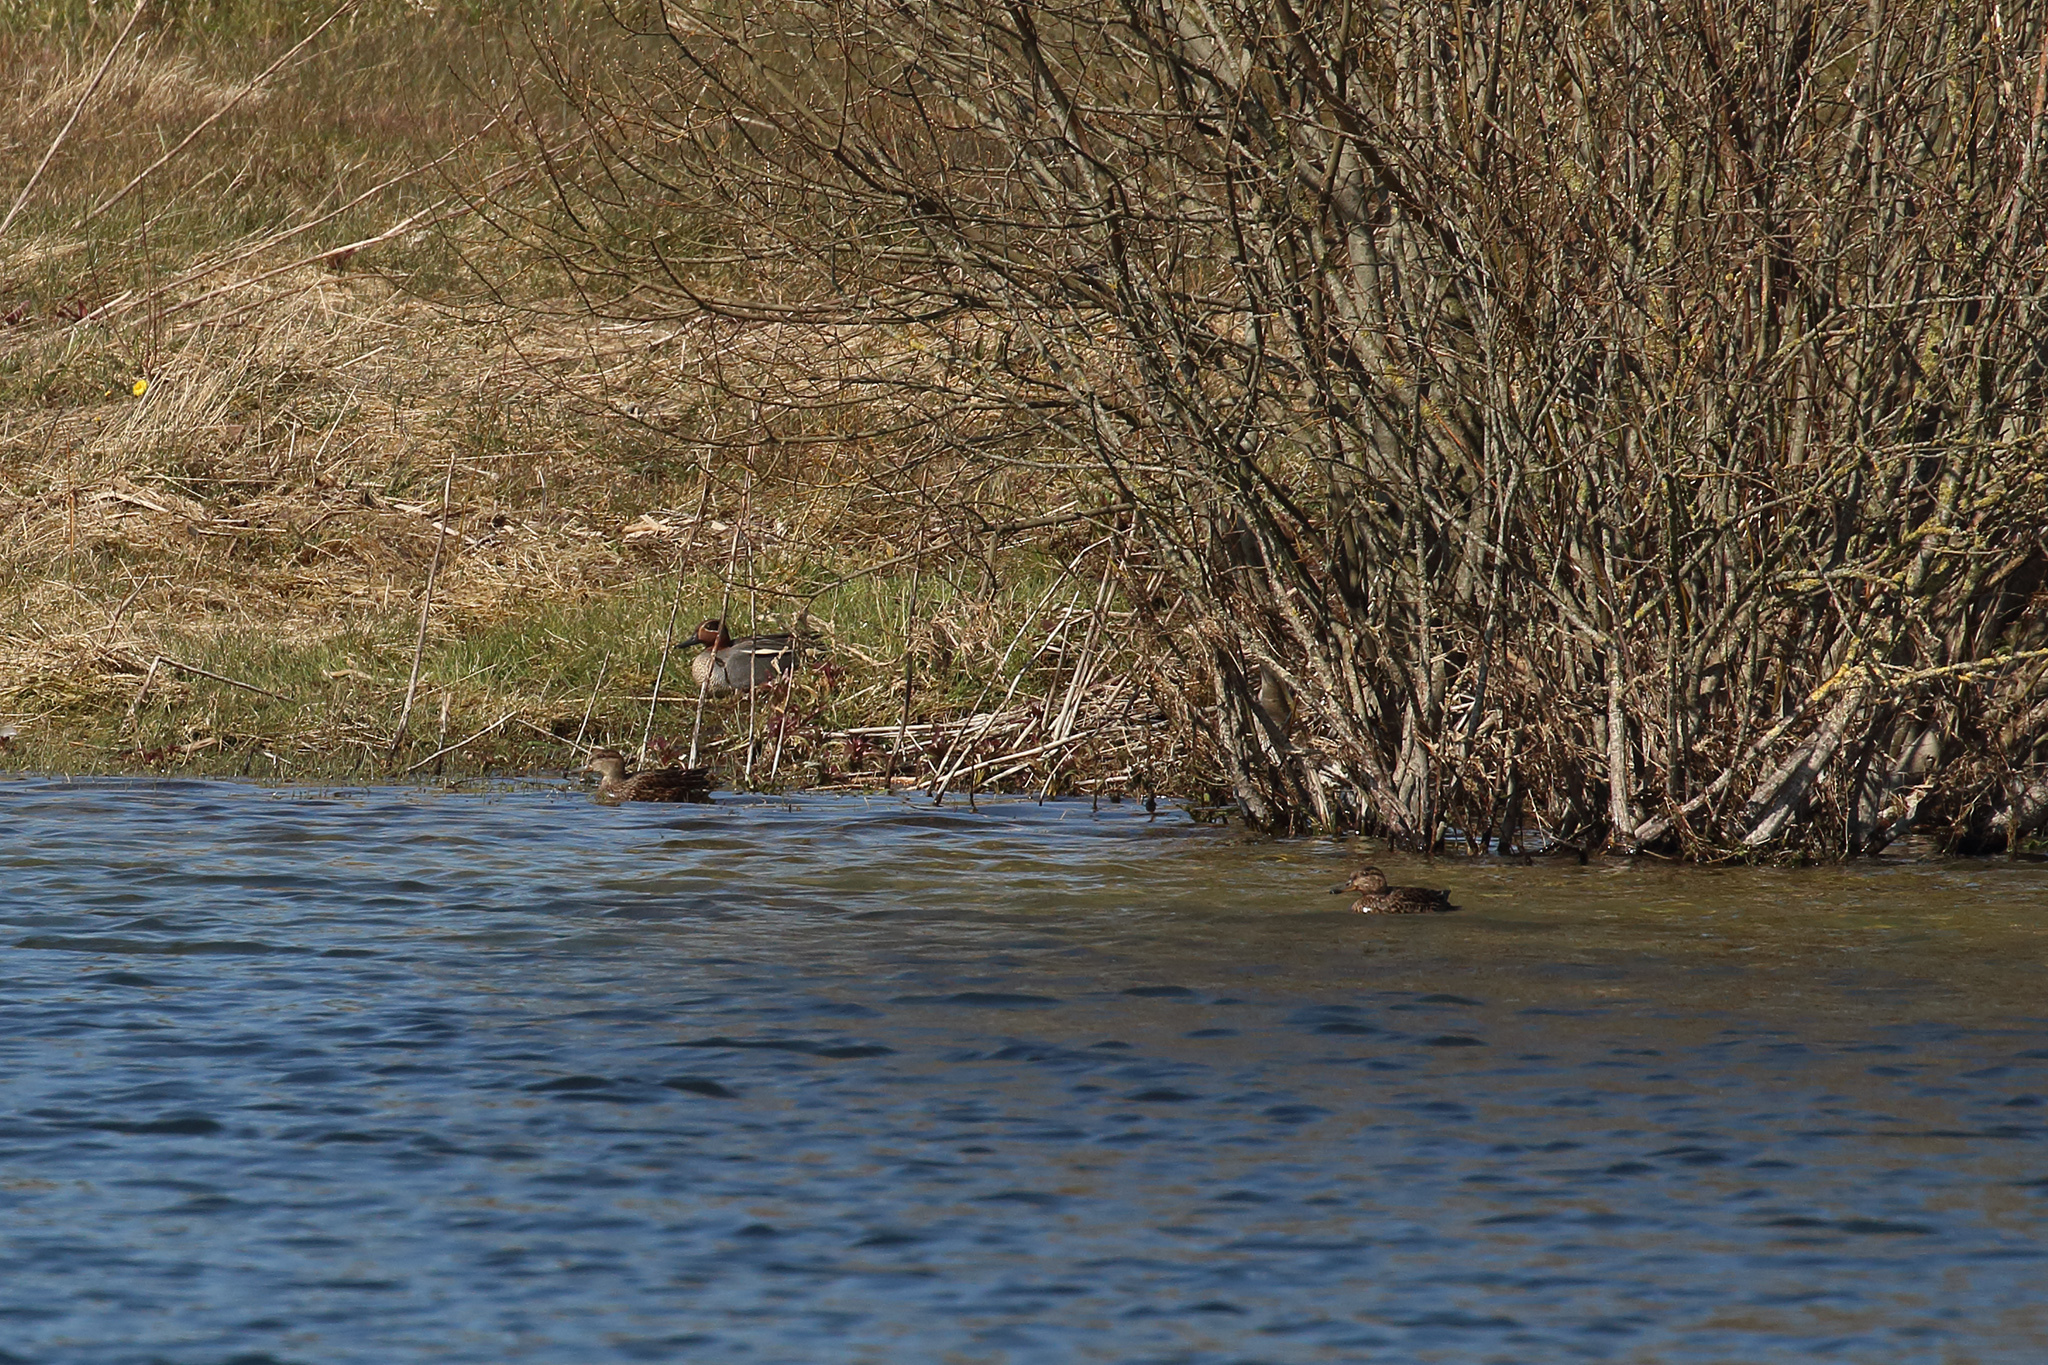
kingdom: Animalia
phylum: Chordata
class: Aves
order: Anseriformes
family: Anatidae
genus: Anas
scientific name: Anas crecca
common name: Eurasian teal
